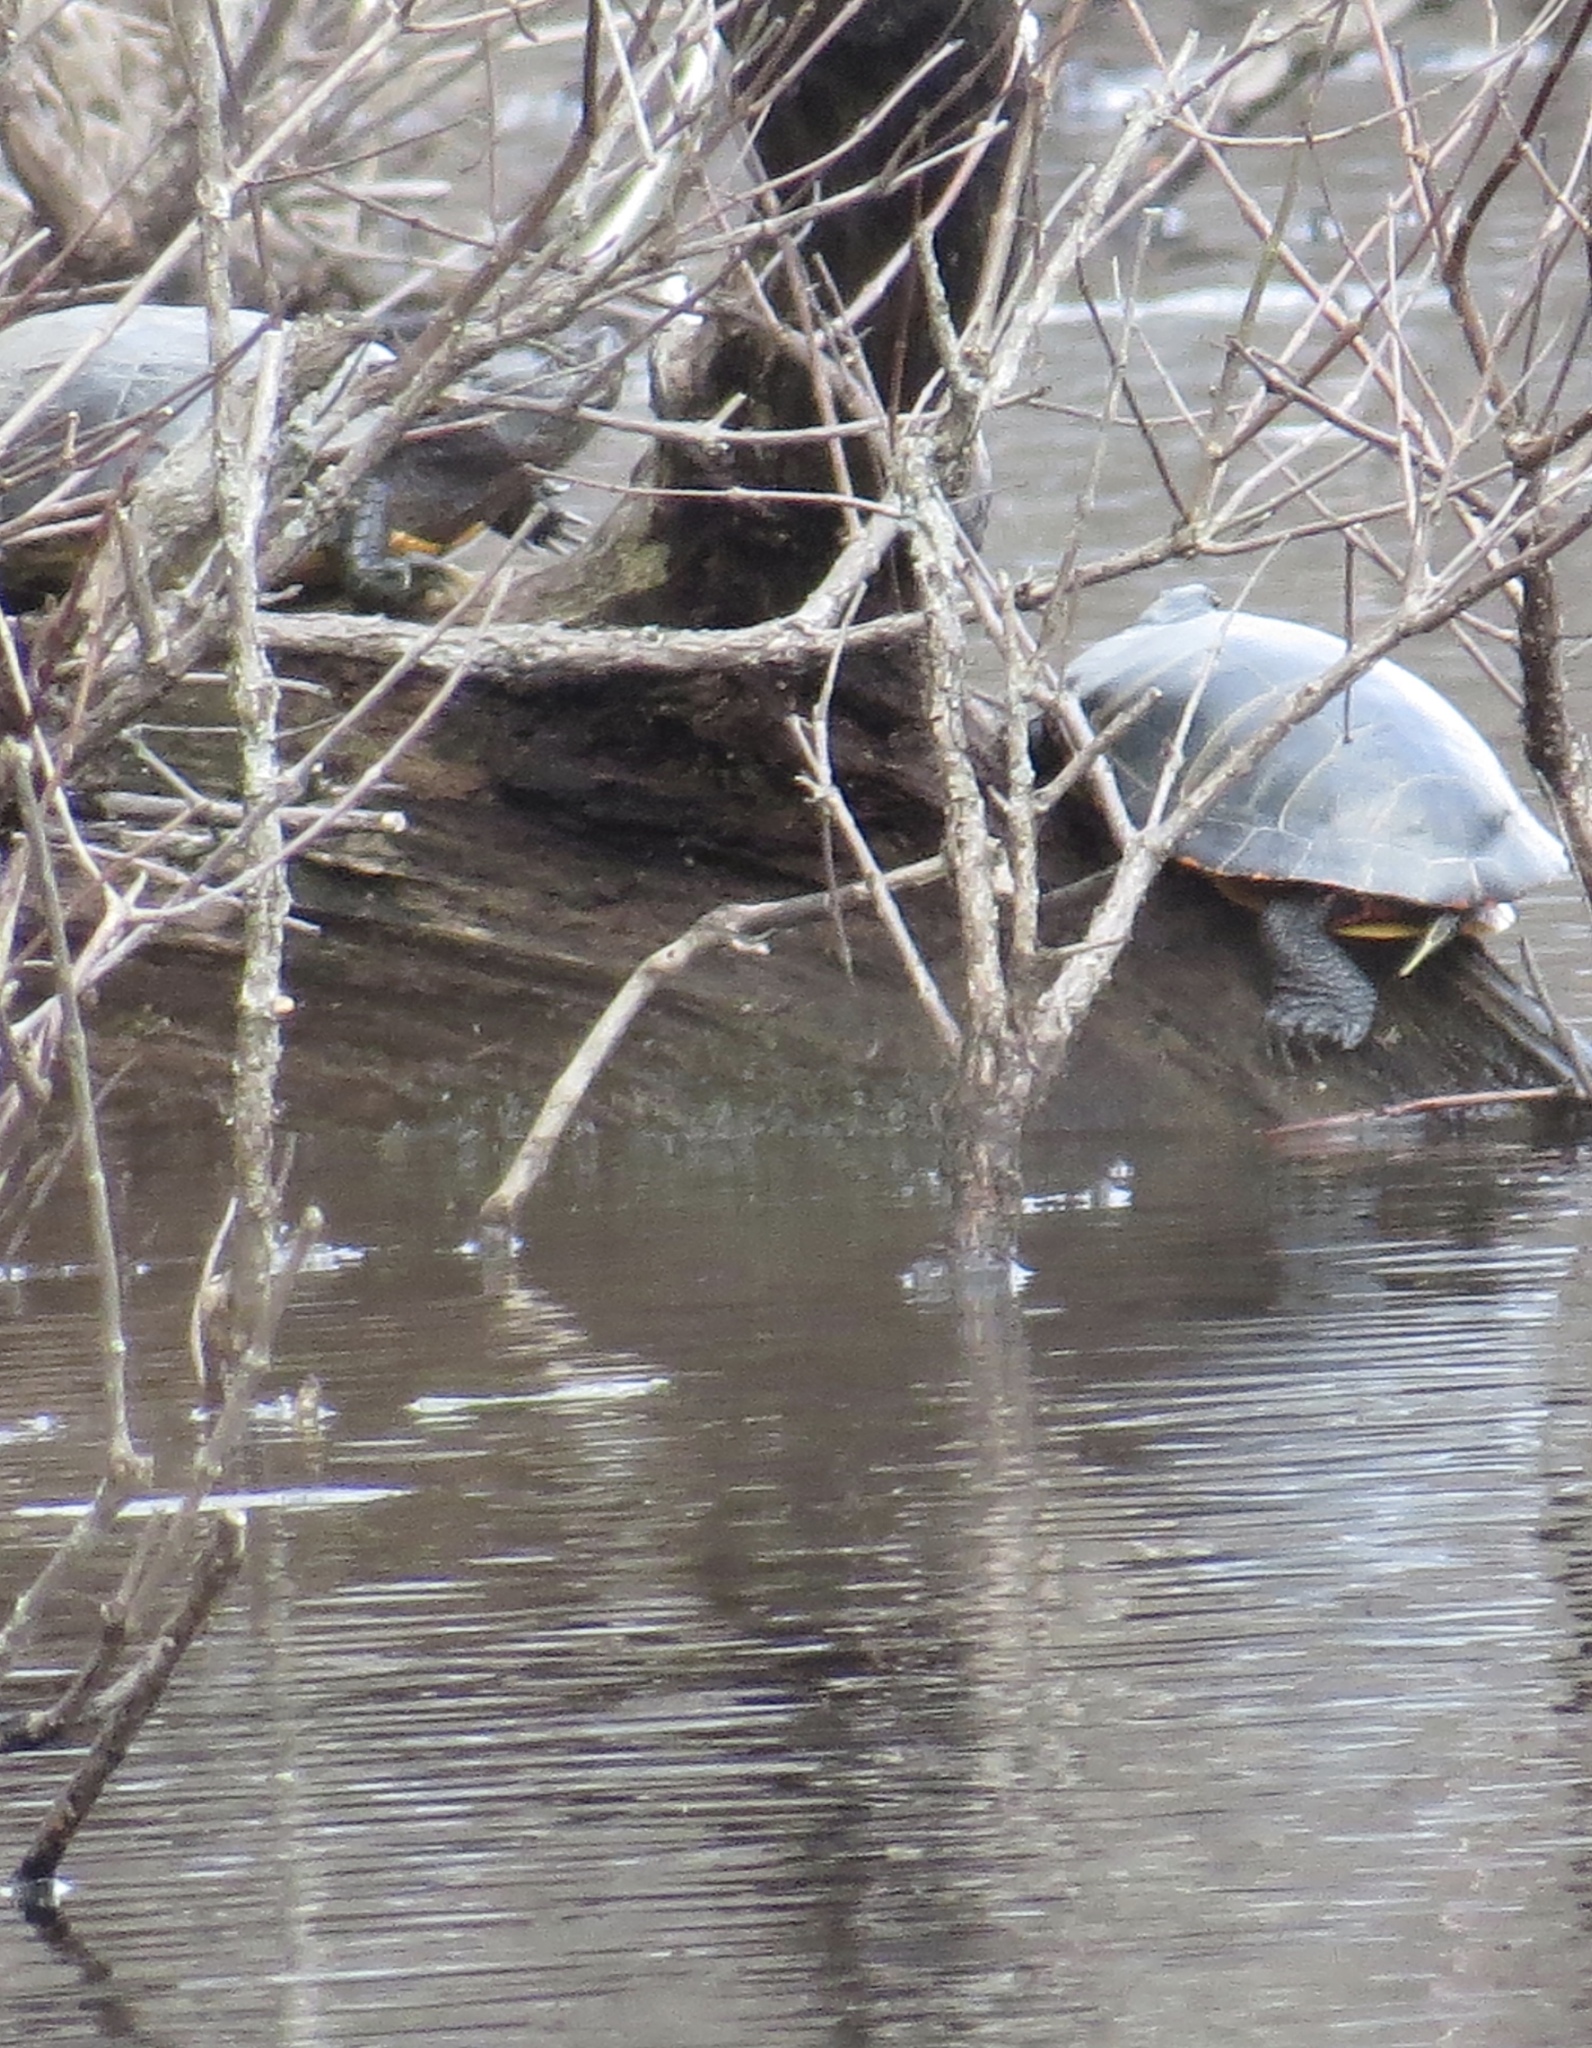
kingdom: Animalia
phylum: Chordata
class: Testudines
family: Emydidae
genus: Chrysemys
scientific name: Chrysemys picta
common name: Painted turtle
